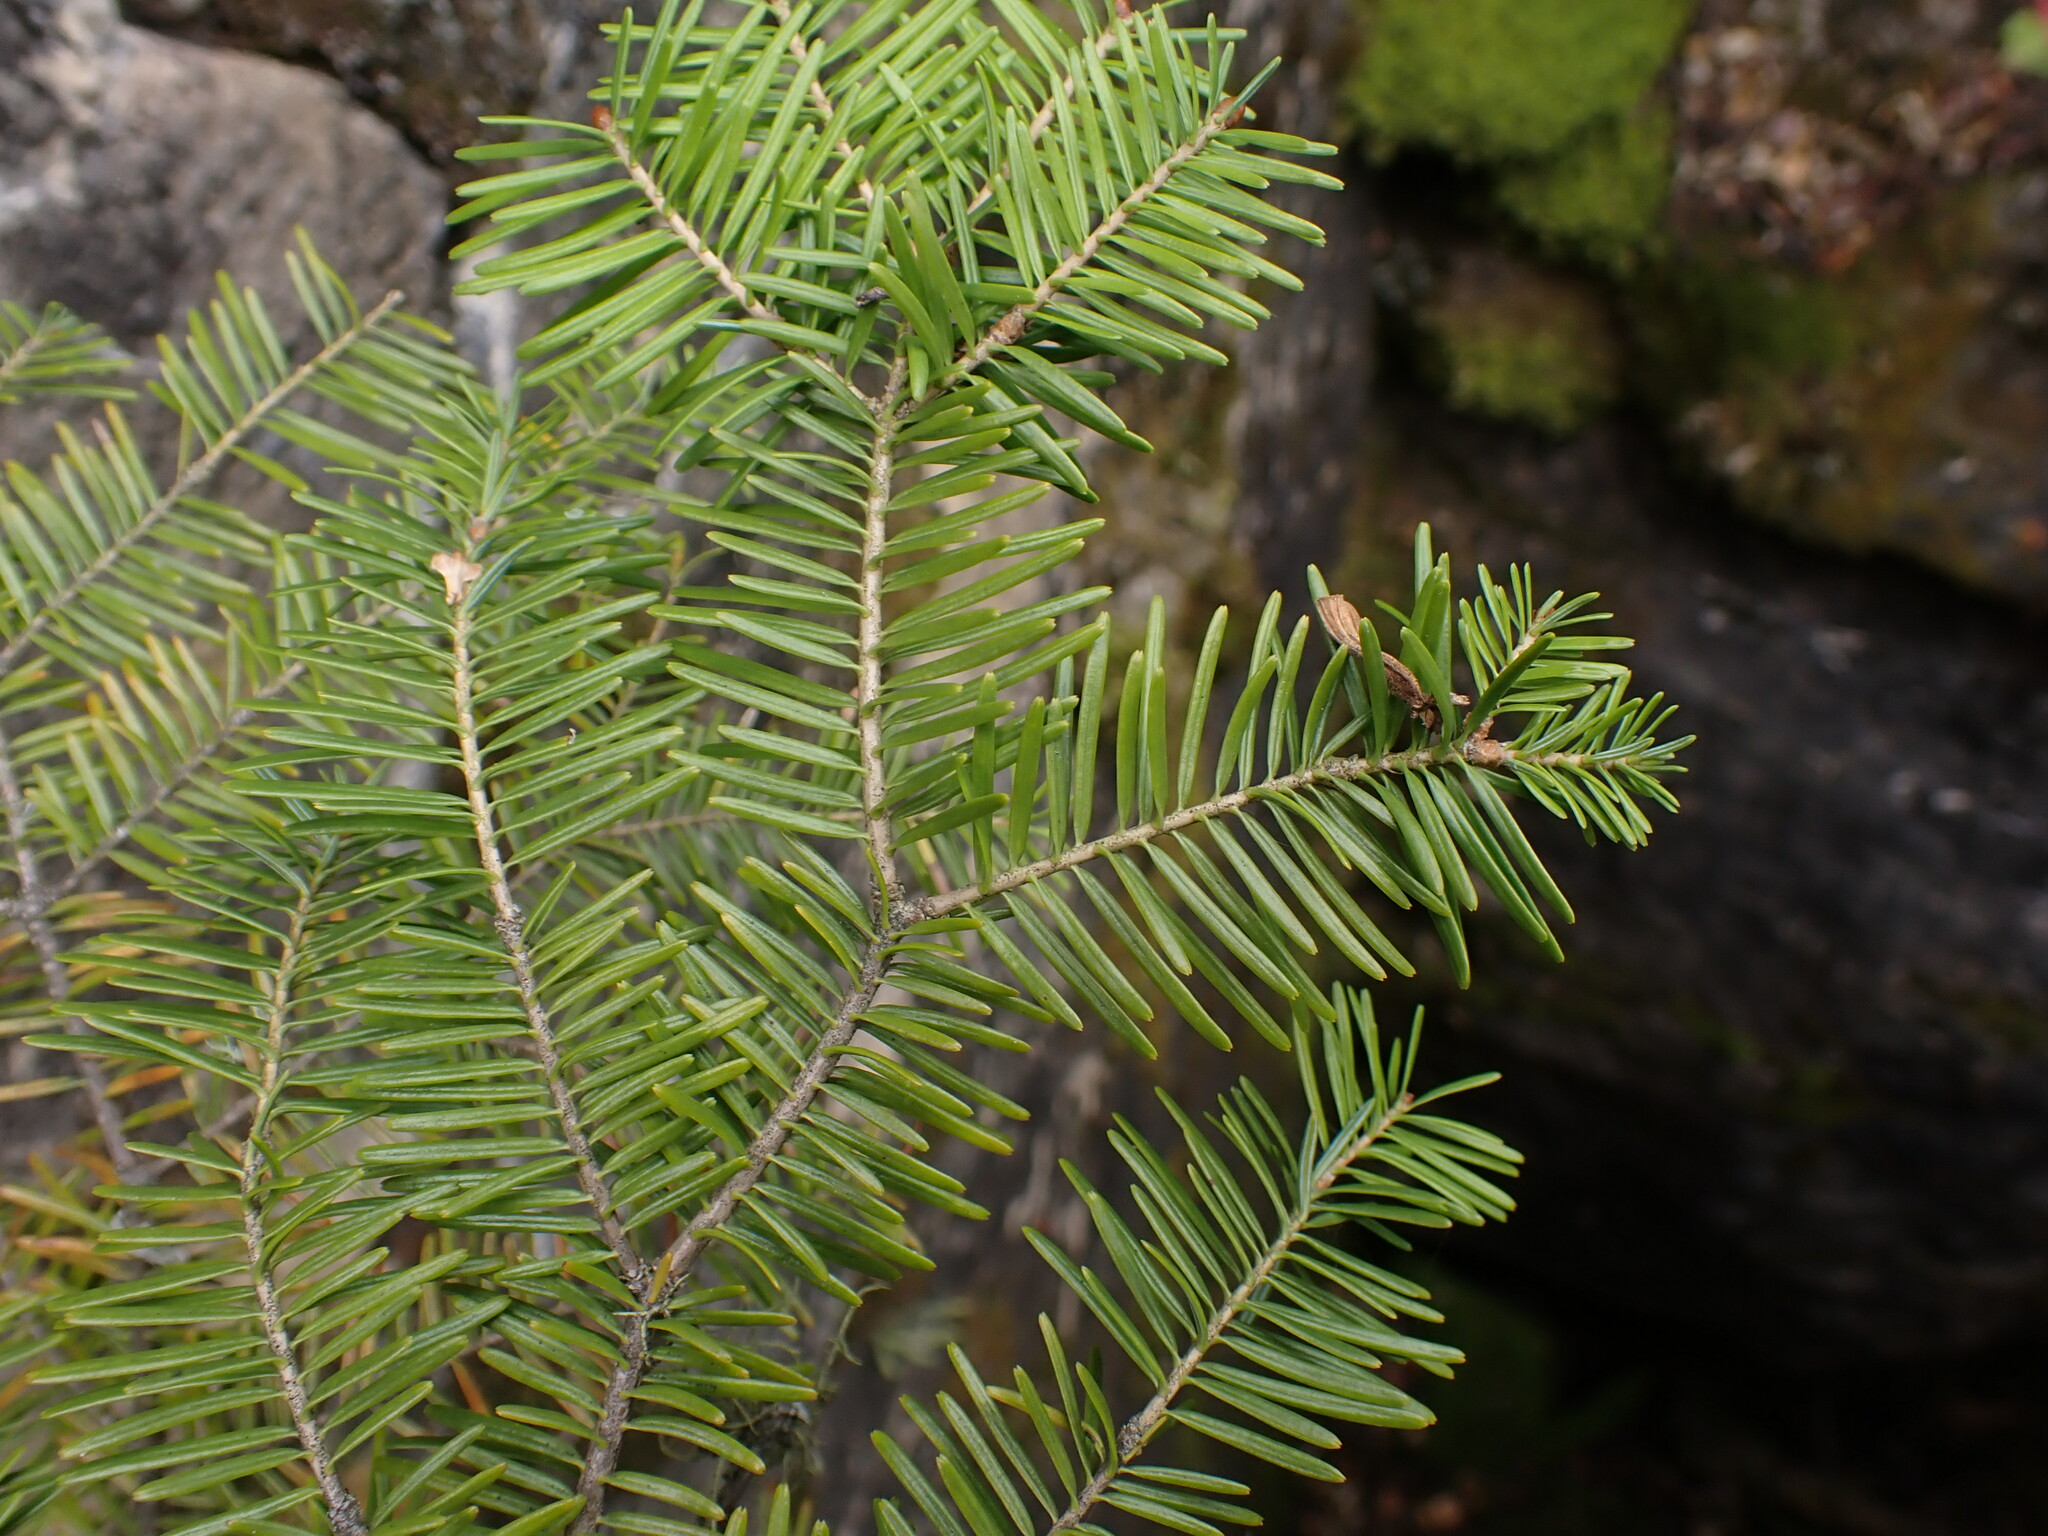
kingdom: Plantae
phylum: Tracheophyta
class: Pinopsida
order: Pinales
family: Pinaceae
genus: Abies
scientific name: Abies balsamea
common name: Balsam fir
